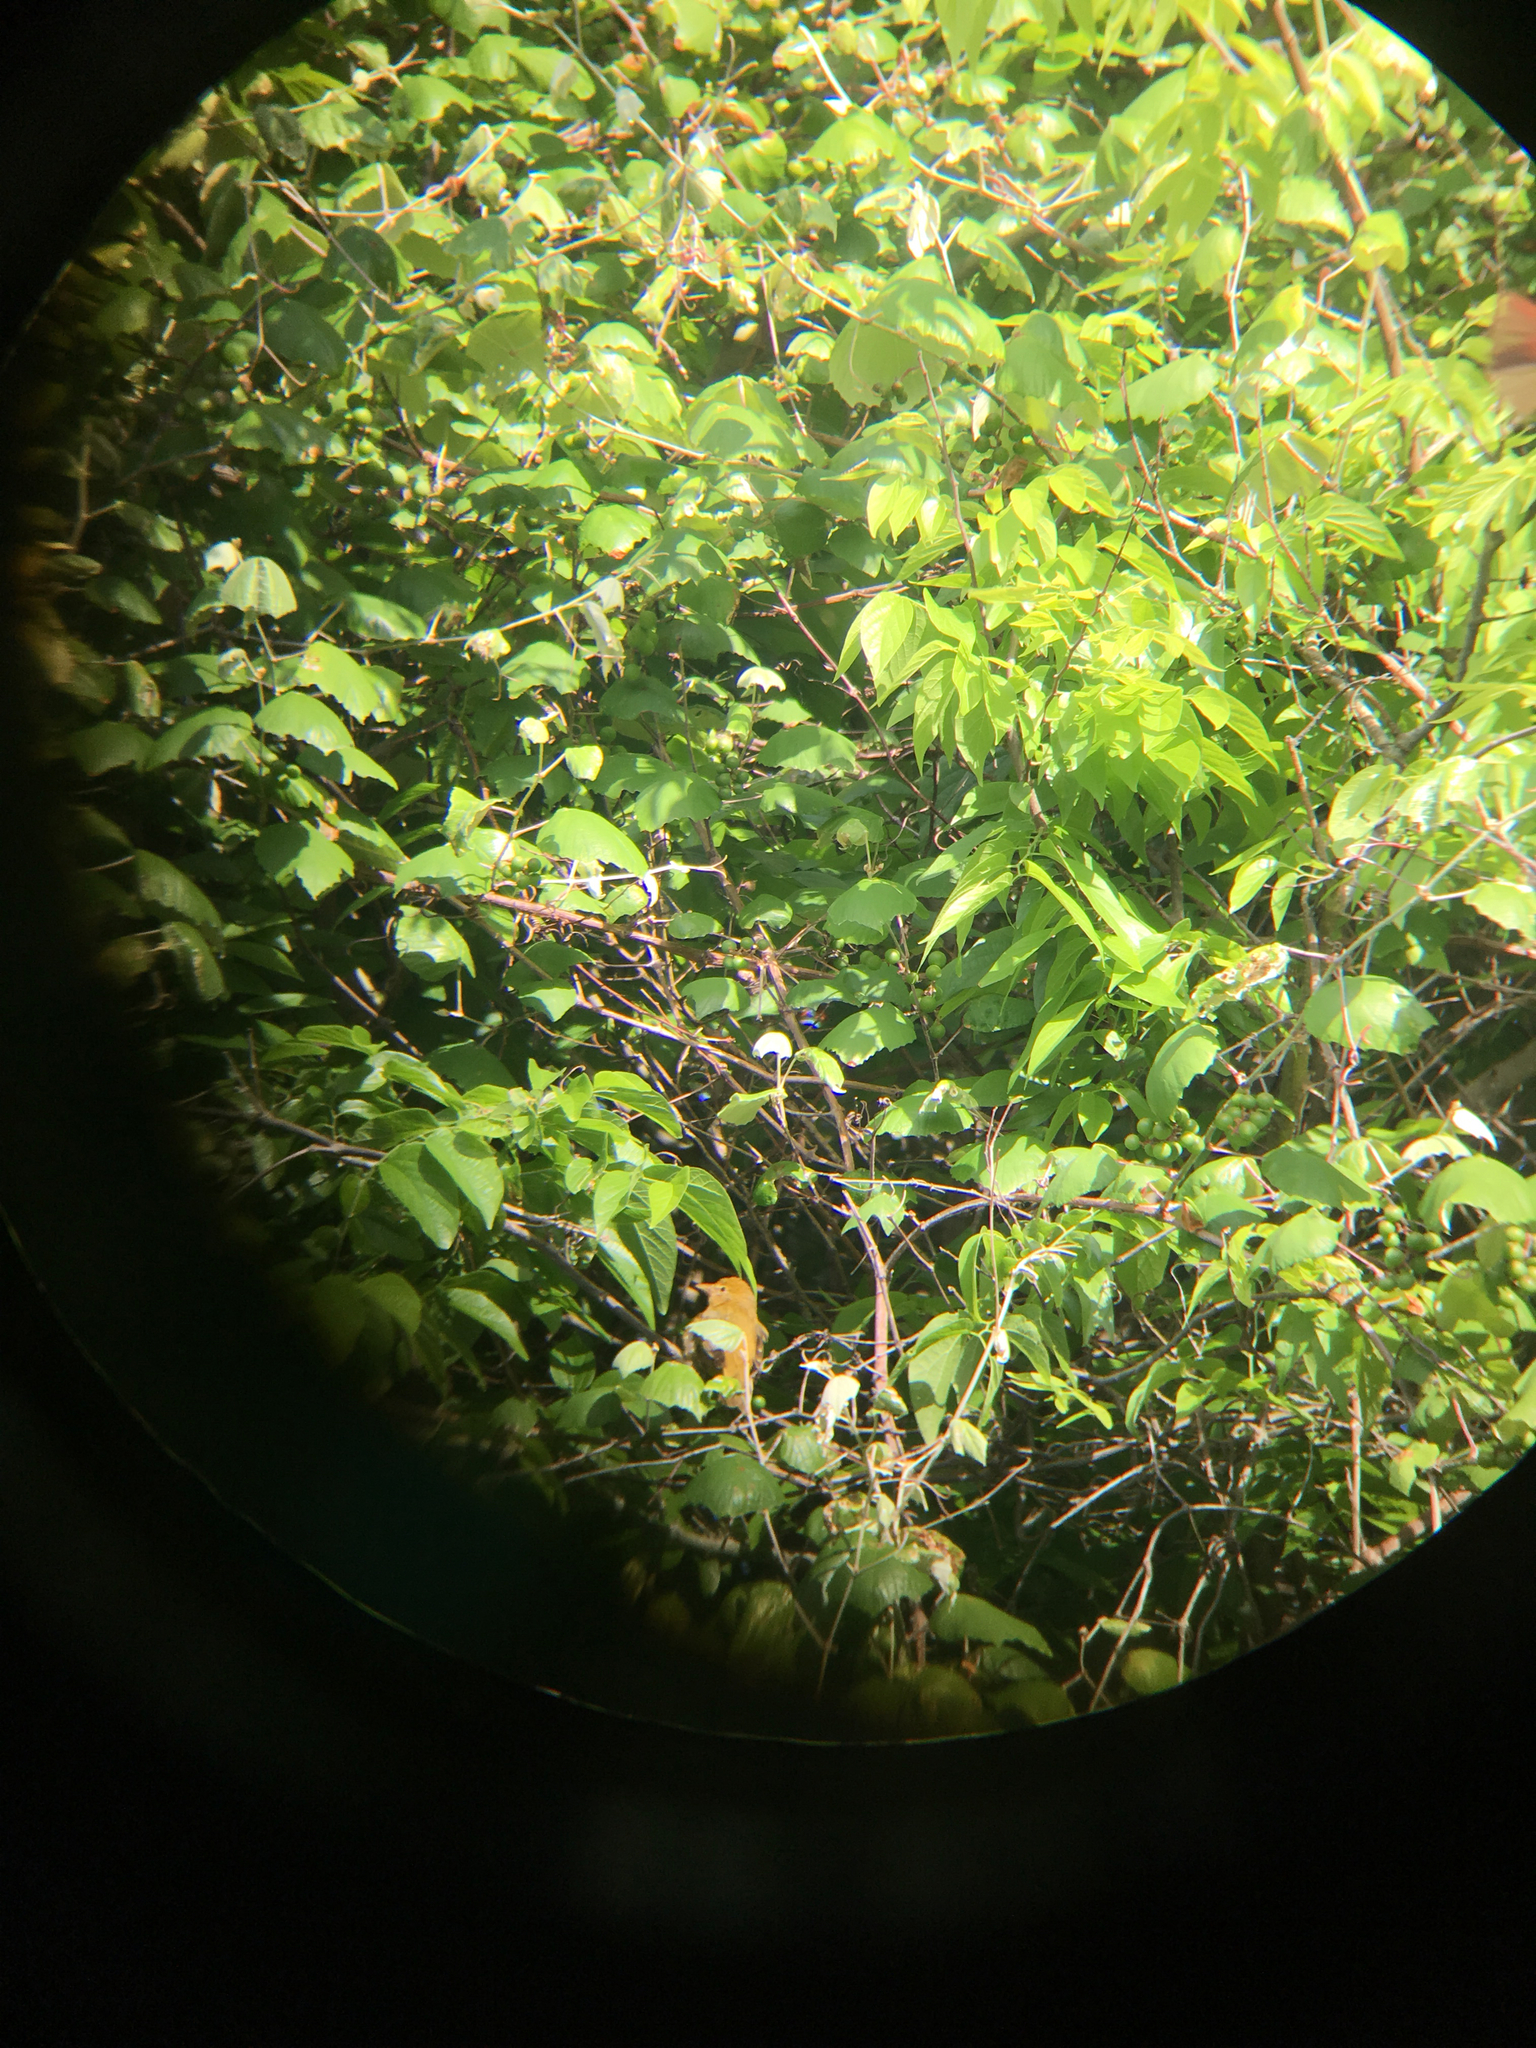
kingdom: Animalia
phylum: Chordata
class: Aves
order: Passeriformes
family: Cardinalidae
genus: Piranga
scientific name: Piranga rubra
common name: Summer tanager
